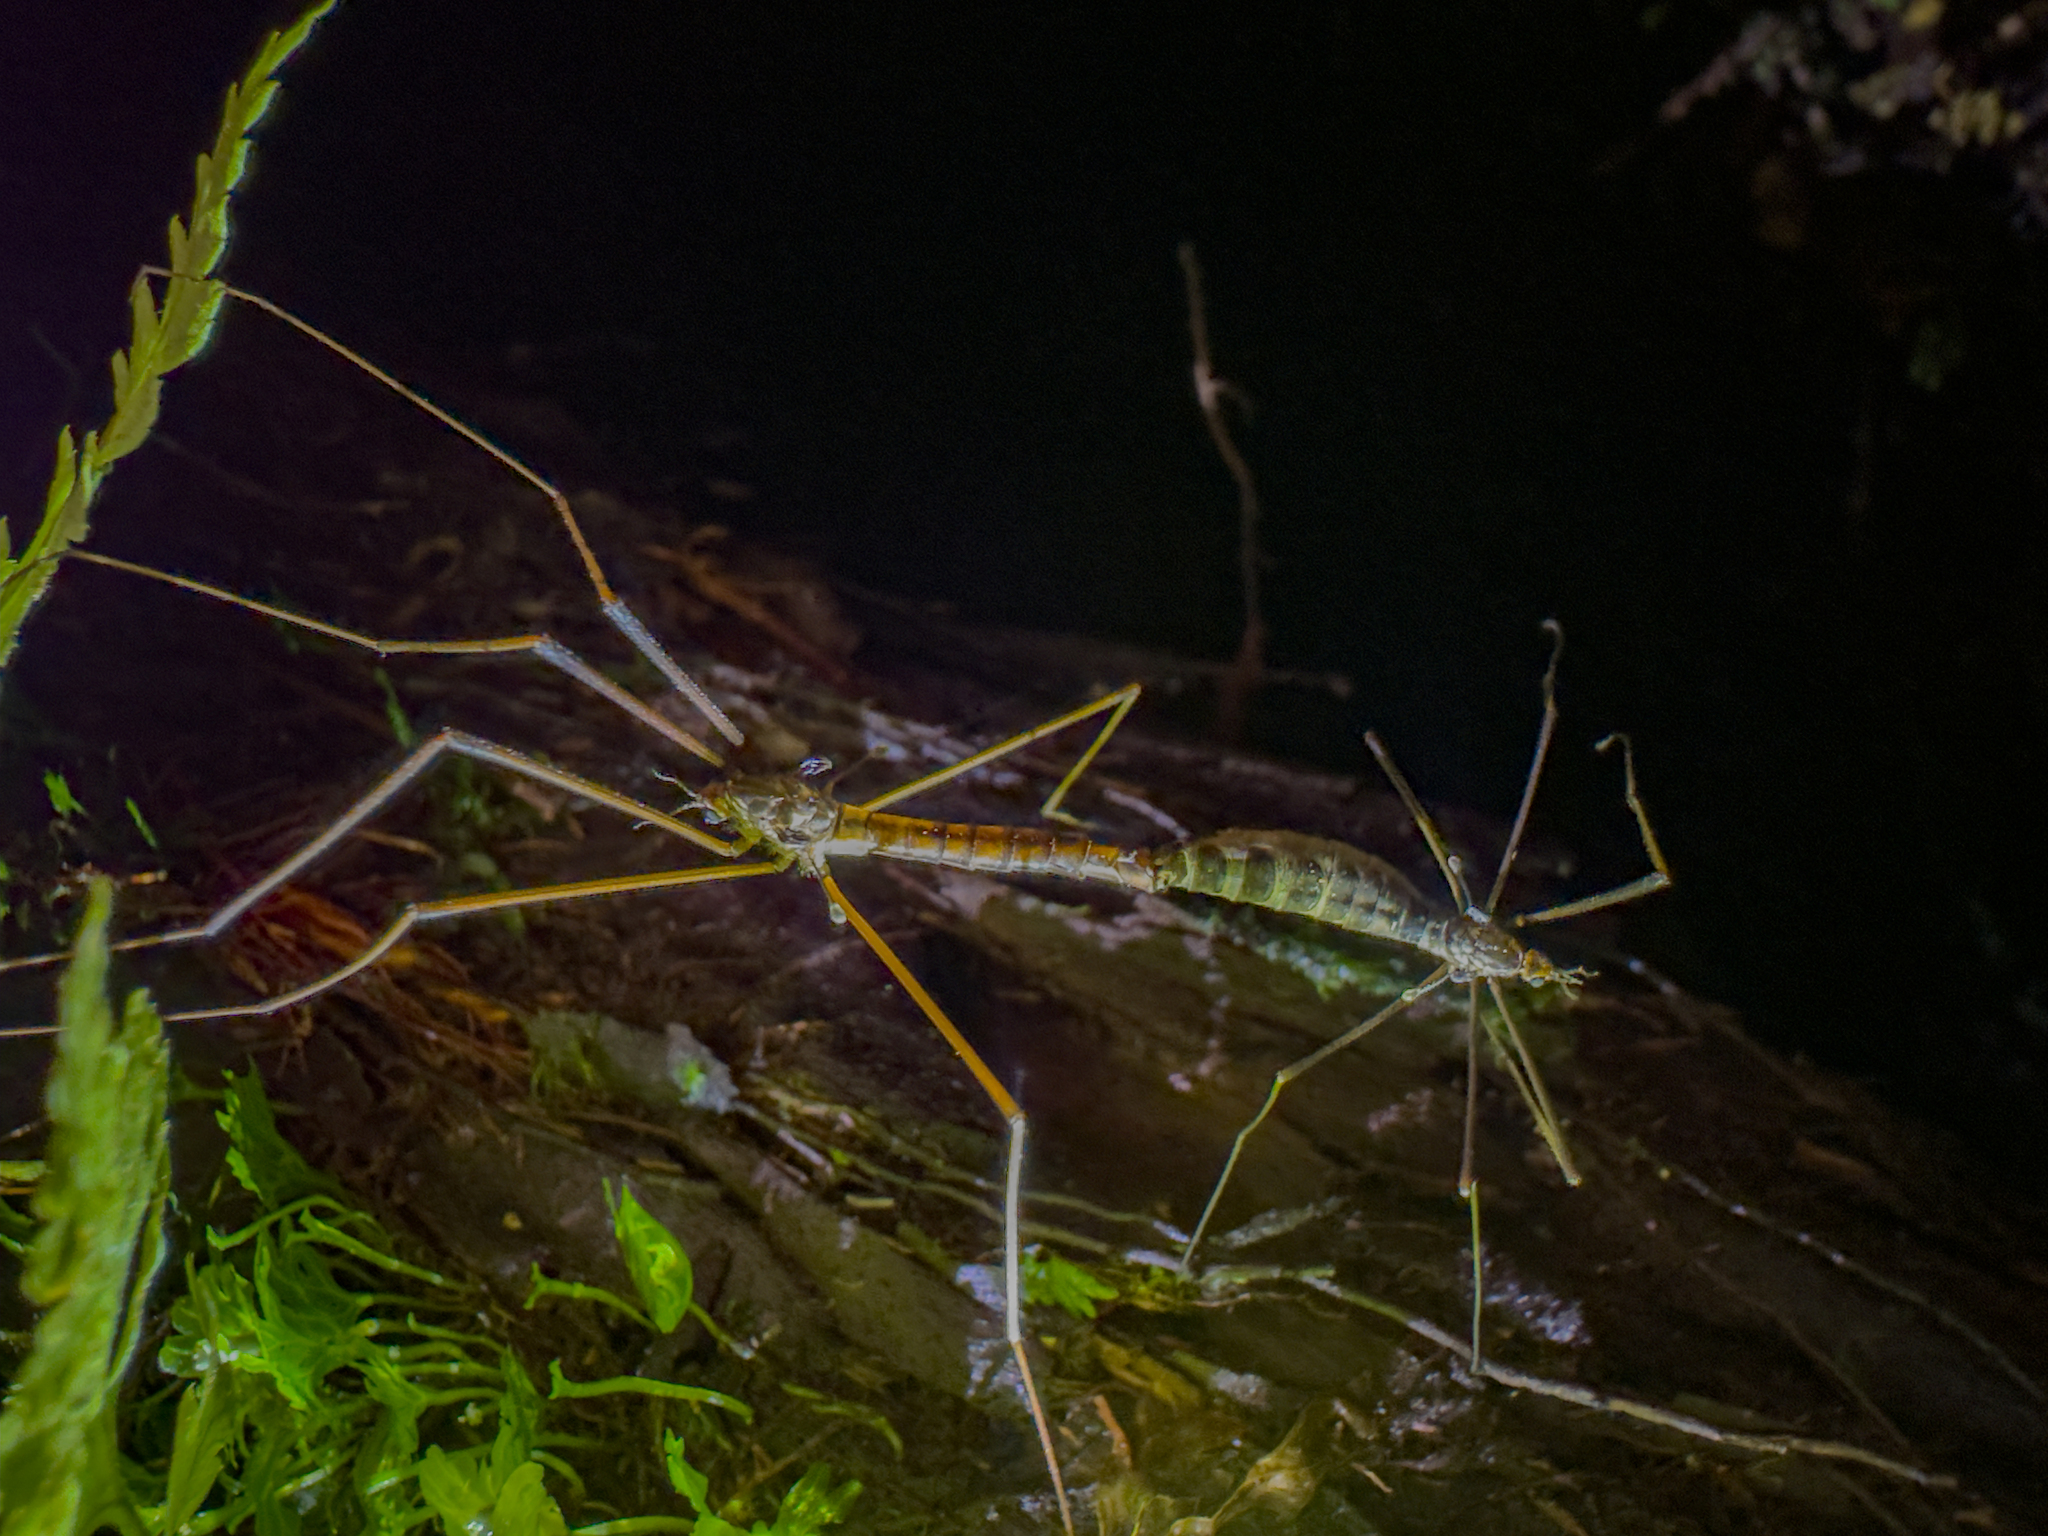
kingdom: Animalia
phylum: Arthropoda
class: Insecta
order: Diptera
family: Tipulidae
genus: Leptotarsus
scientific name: Leptotarsus pedestris
